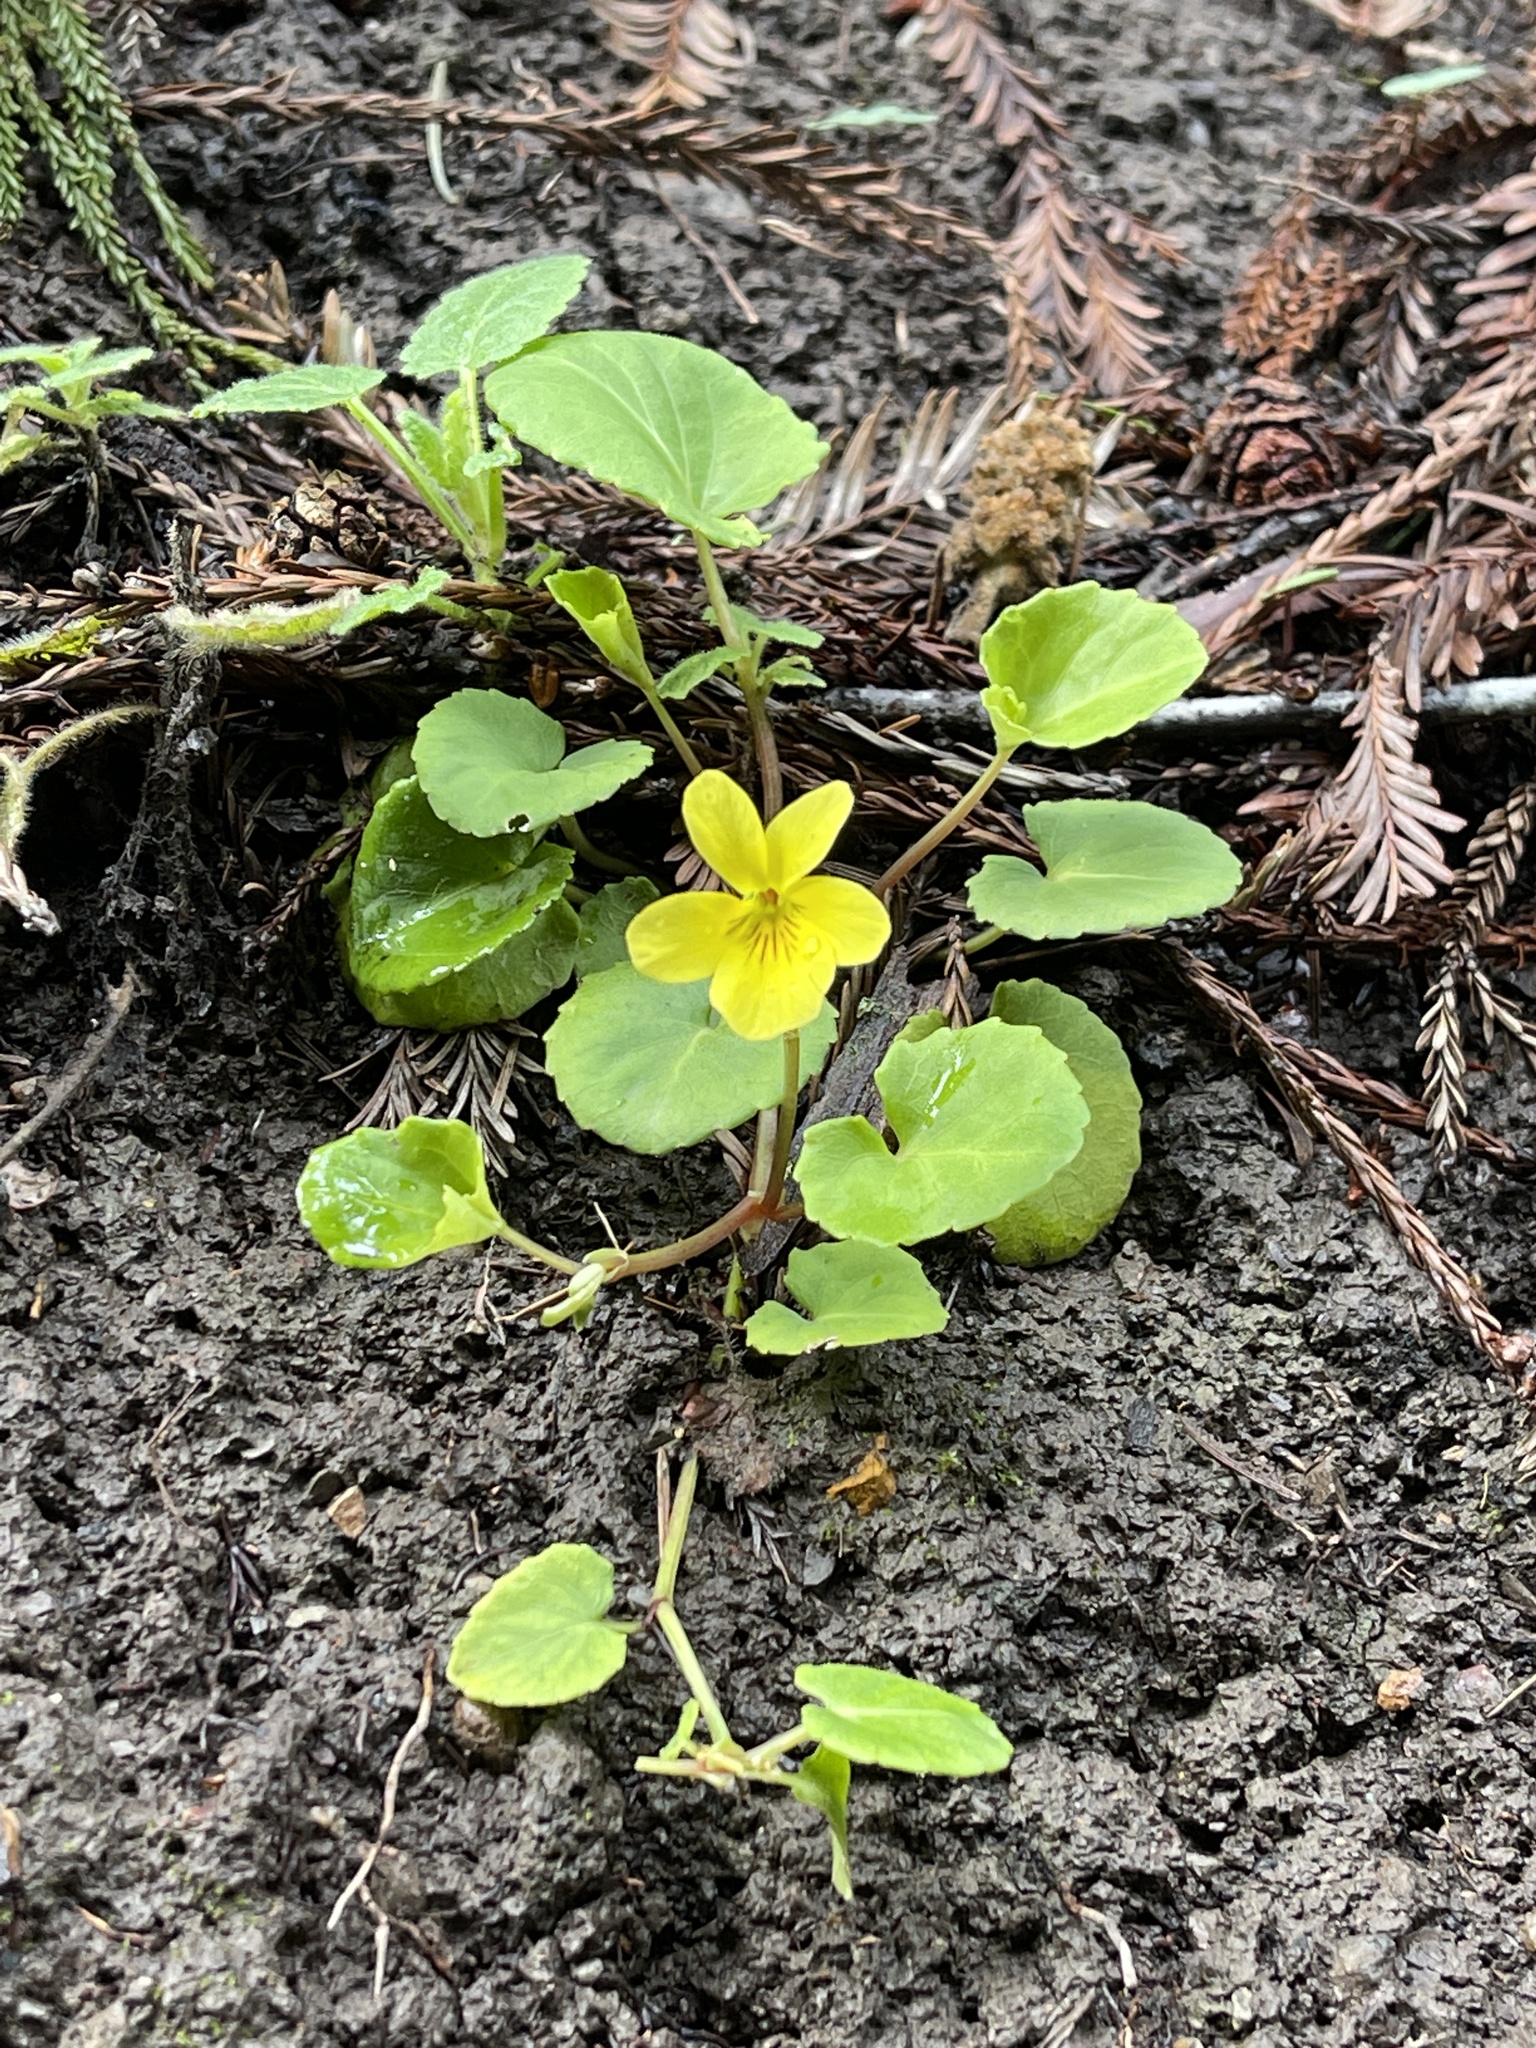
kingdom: Plantae
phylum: Tracheophyta
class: Magnoliopsida
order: Malpighiales
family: Violaceae
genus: Viola
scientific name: Viola sempervirens
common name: Evergreen violet
